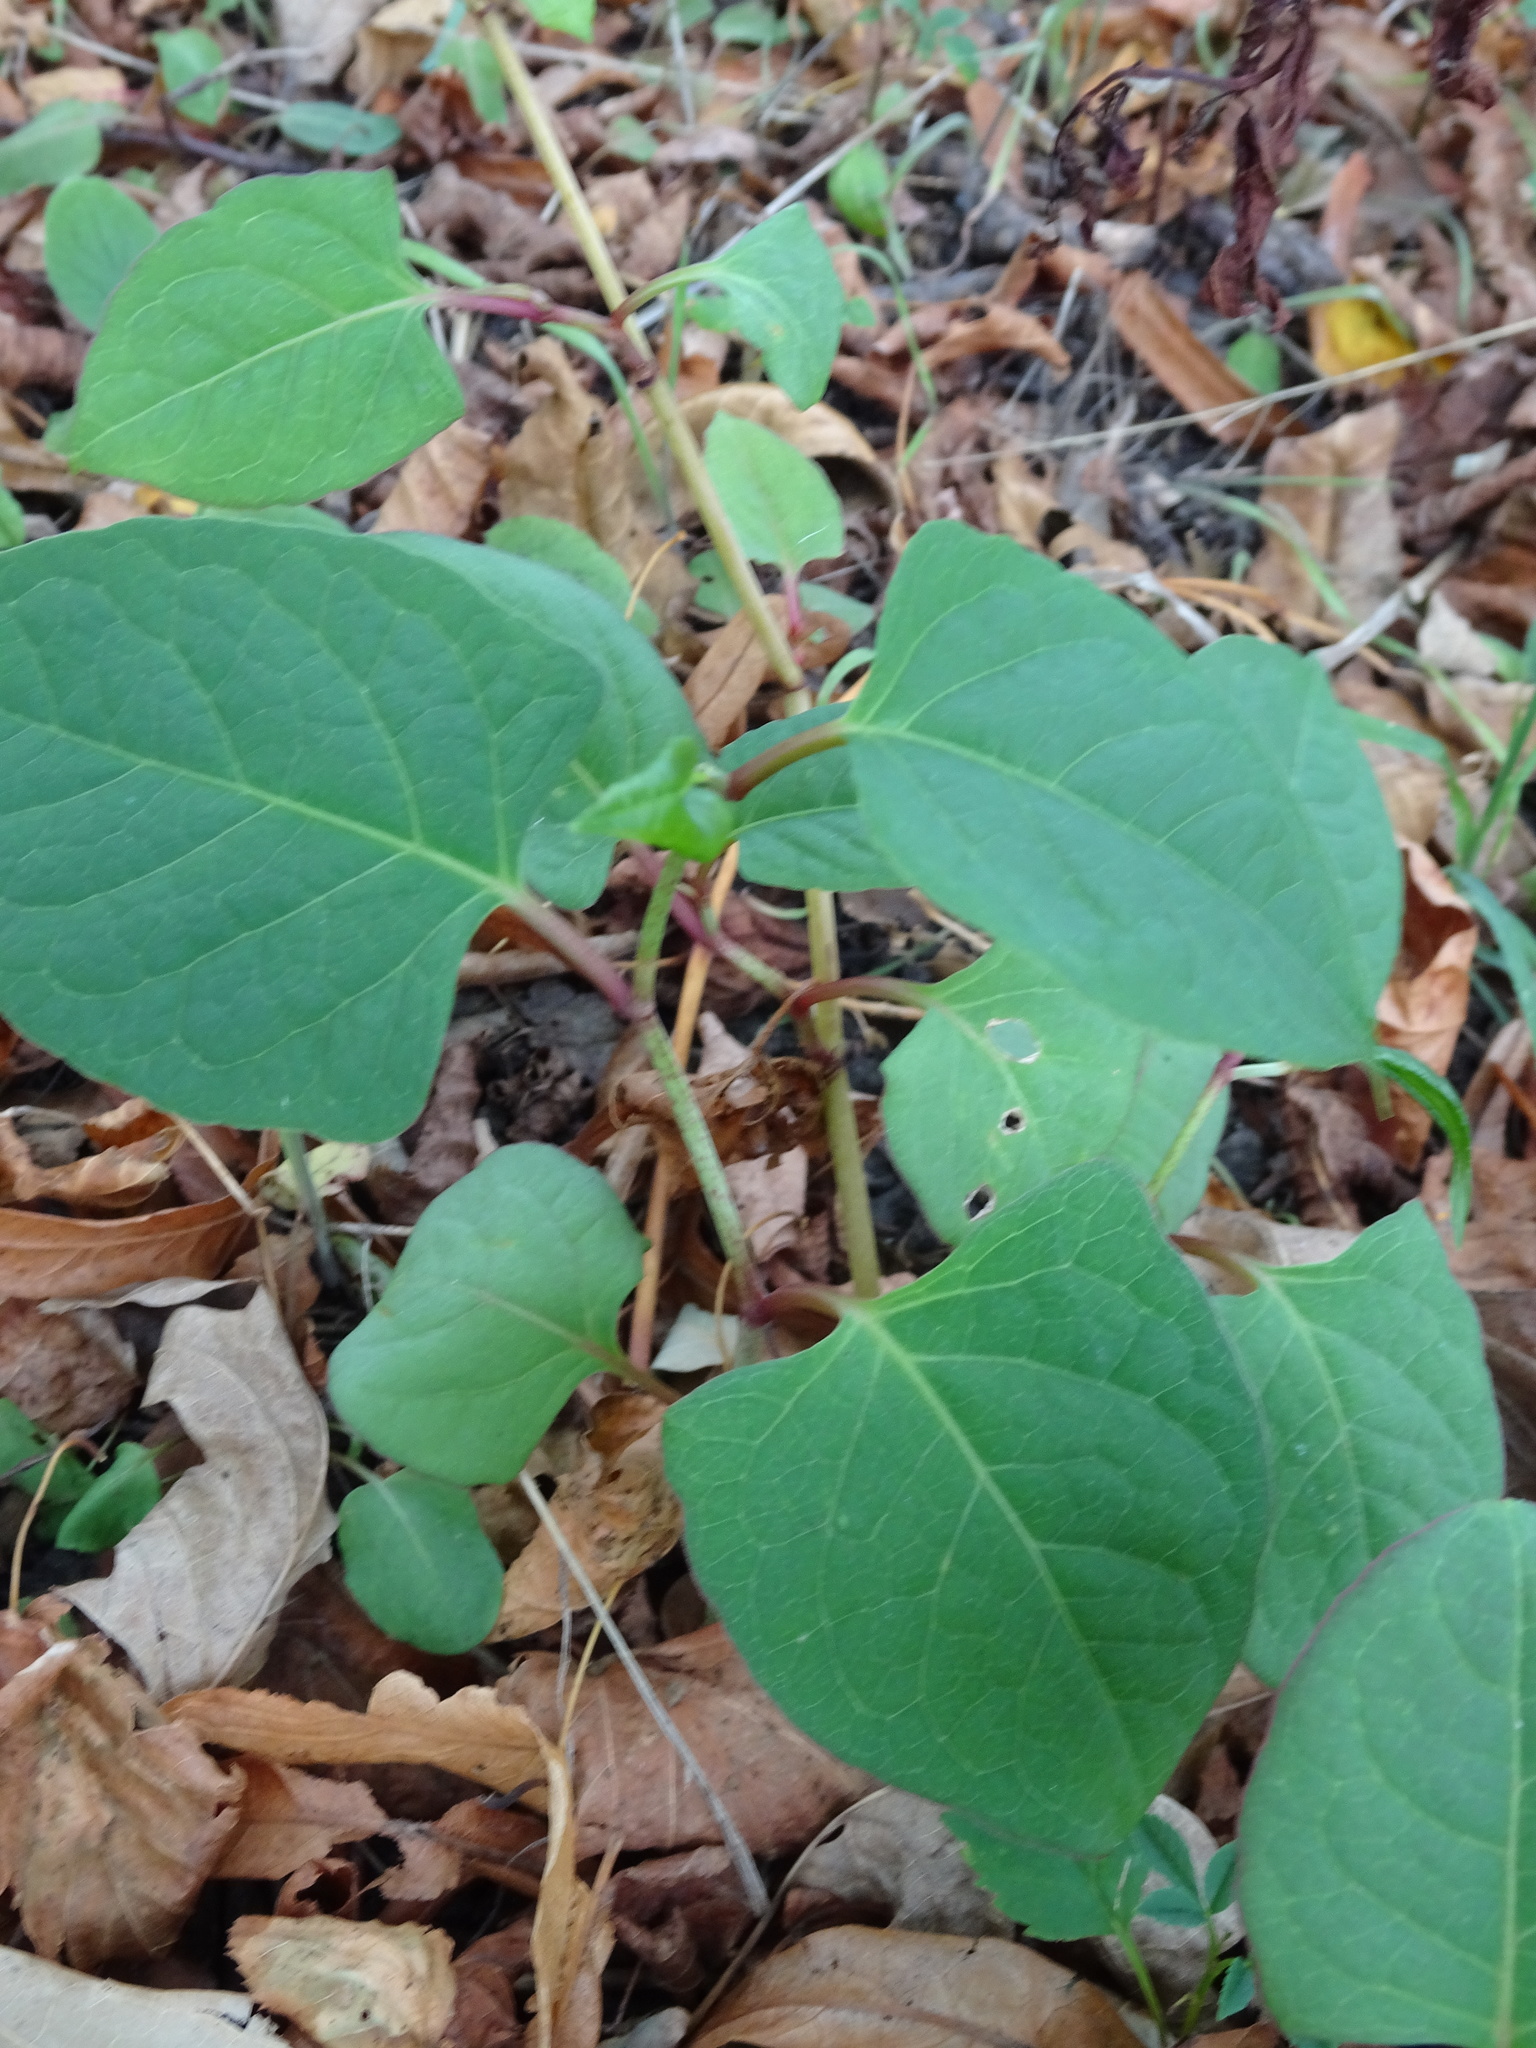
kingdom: Plantae
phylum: Tracheophyta
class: Magnoliopsida
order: Caryophyllales
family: Polygonaceae
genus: Reynoutria
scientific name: Reynoutria japonica
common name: Japanese knotweed
